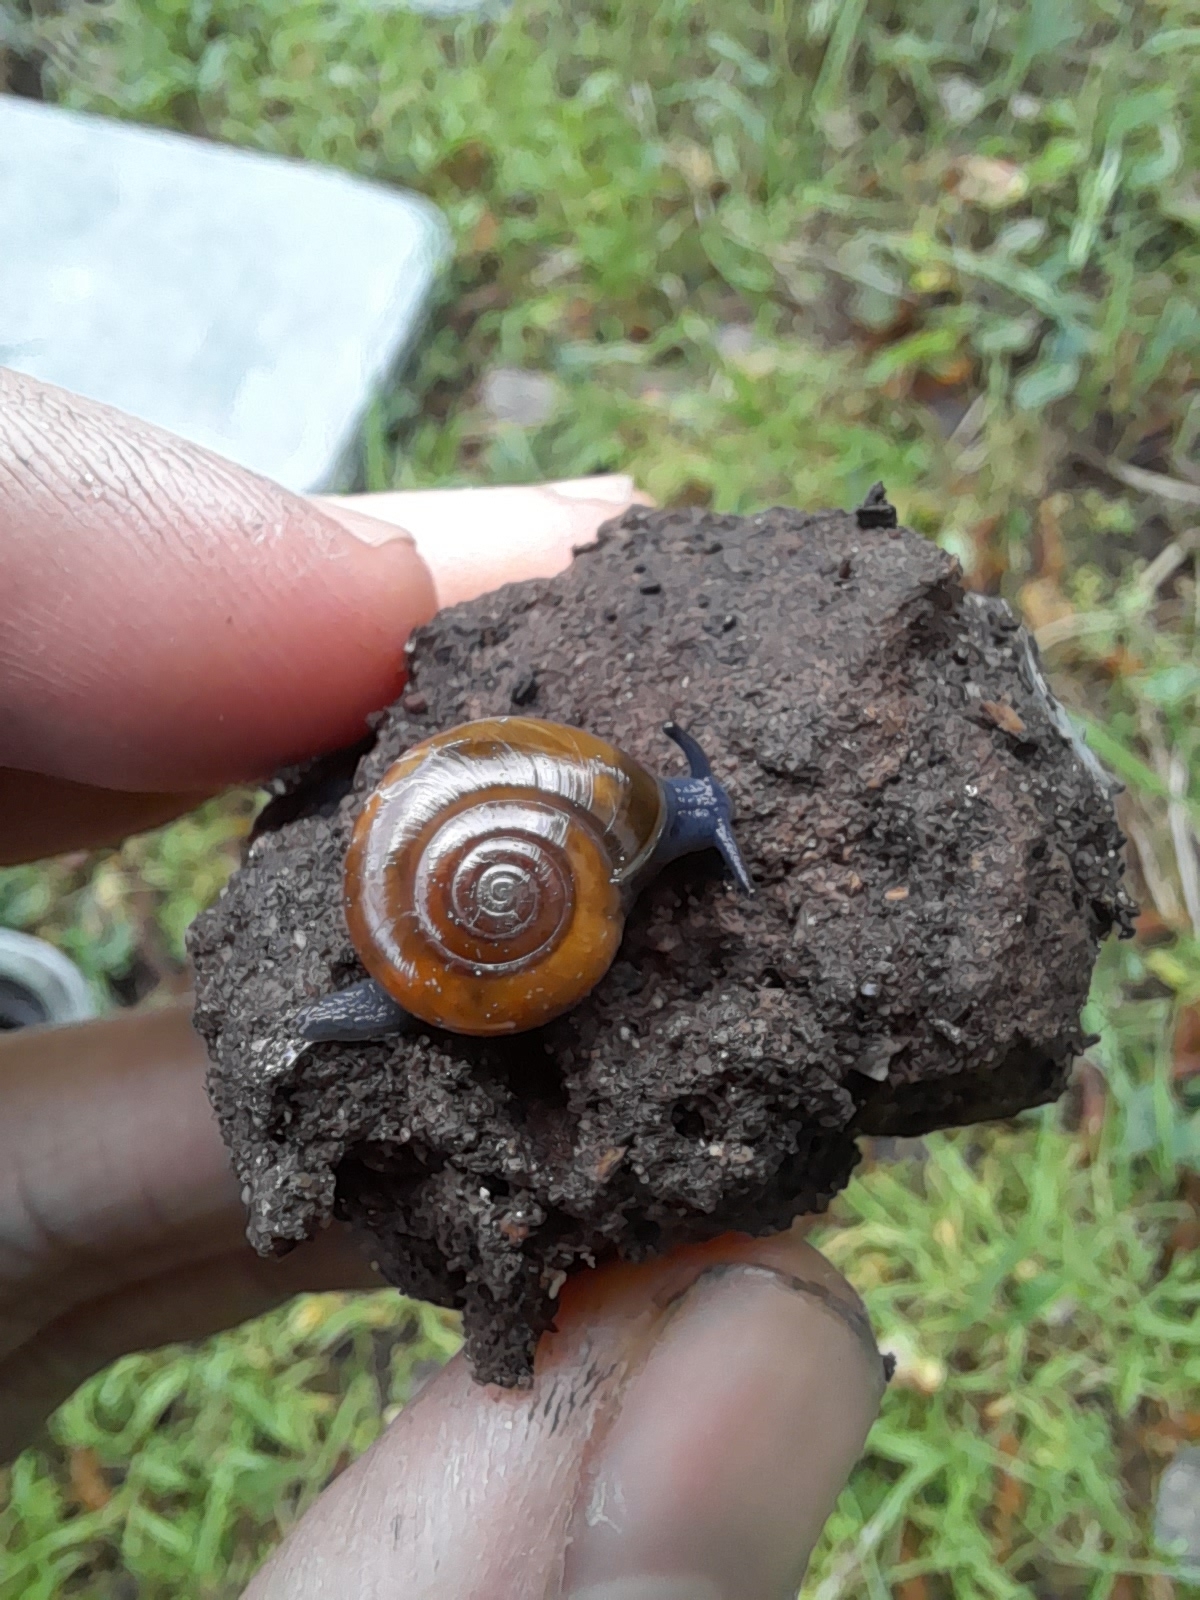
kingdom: Animalia
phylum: Mollusca
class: Gastropoda
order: Stylommatophora
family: Oxychilidae
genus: Oxychilus
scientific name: Oxychilus draparnaudi
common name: Draparnaud's glass snail
